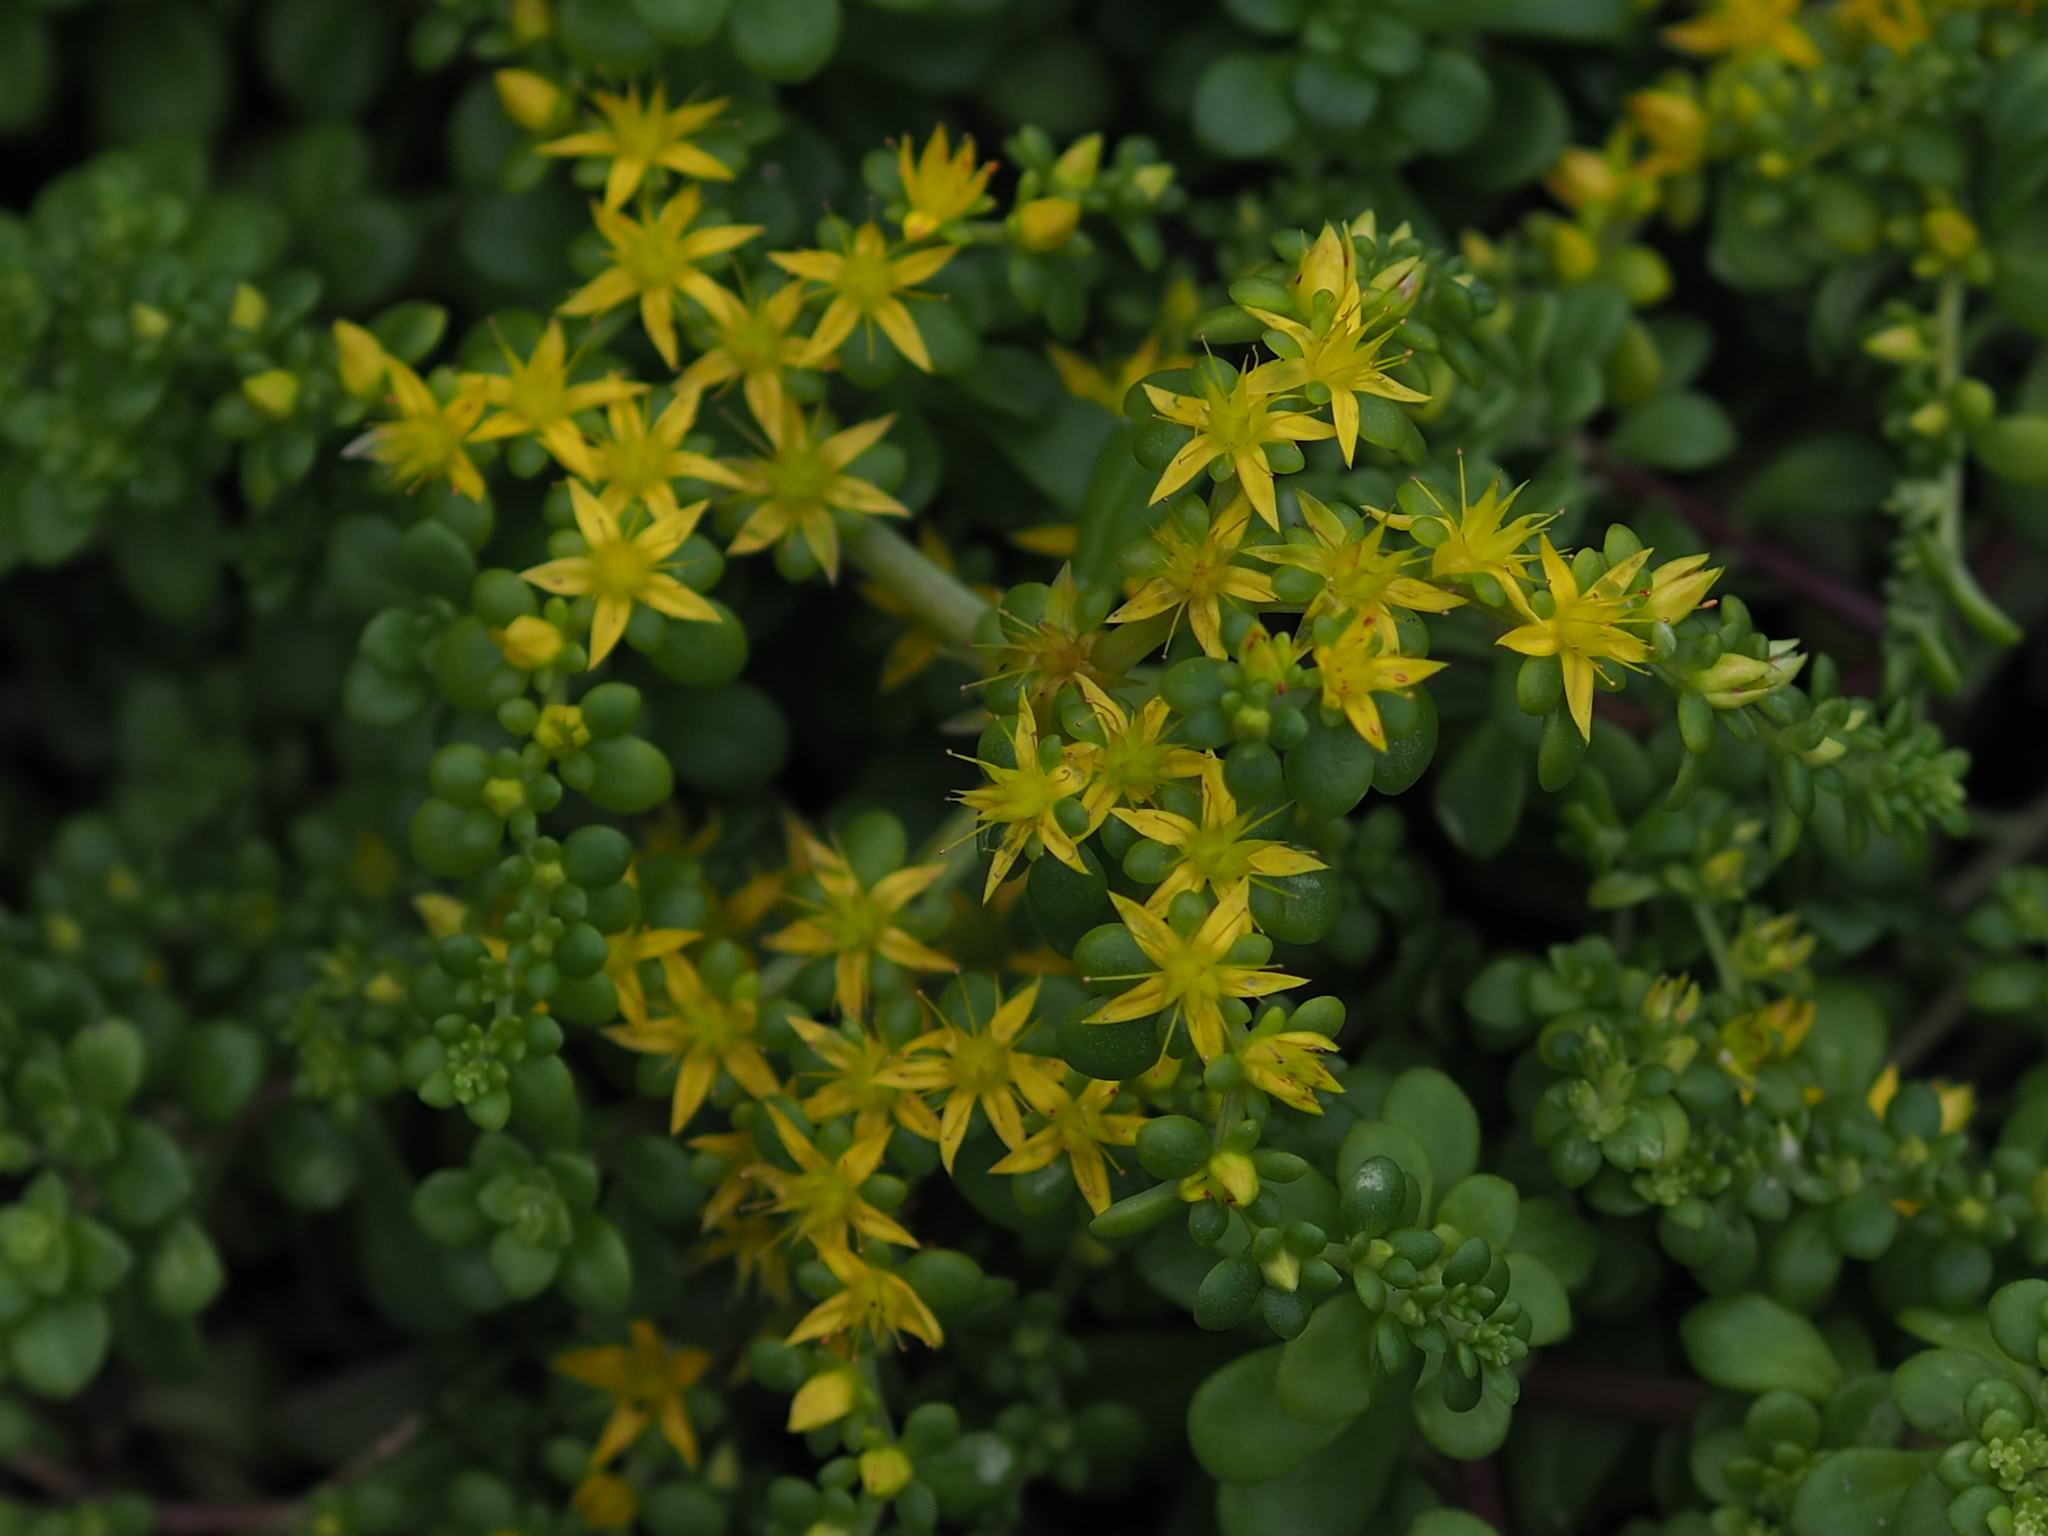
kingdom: Plantae
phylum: Tracheophyta
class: Magnoliopsida
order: Saxifragales
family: Crassulaceae
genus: Sedum
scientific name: Sedum formosanum
